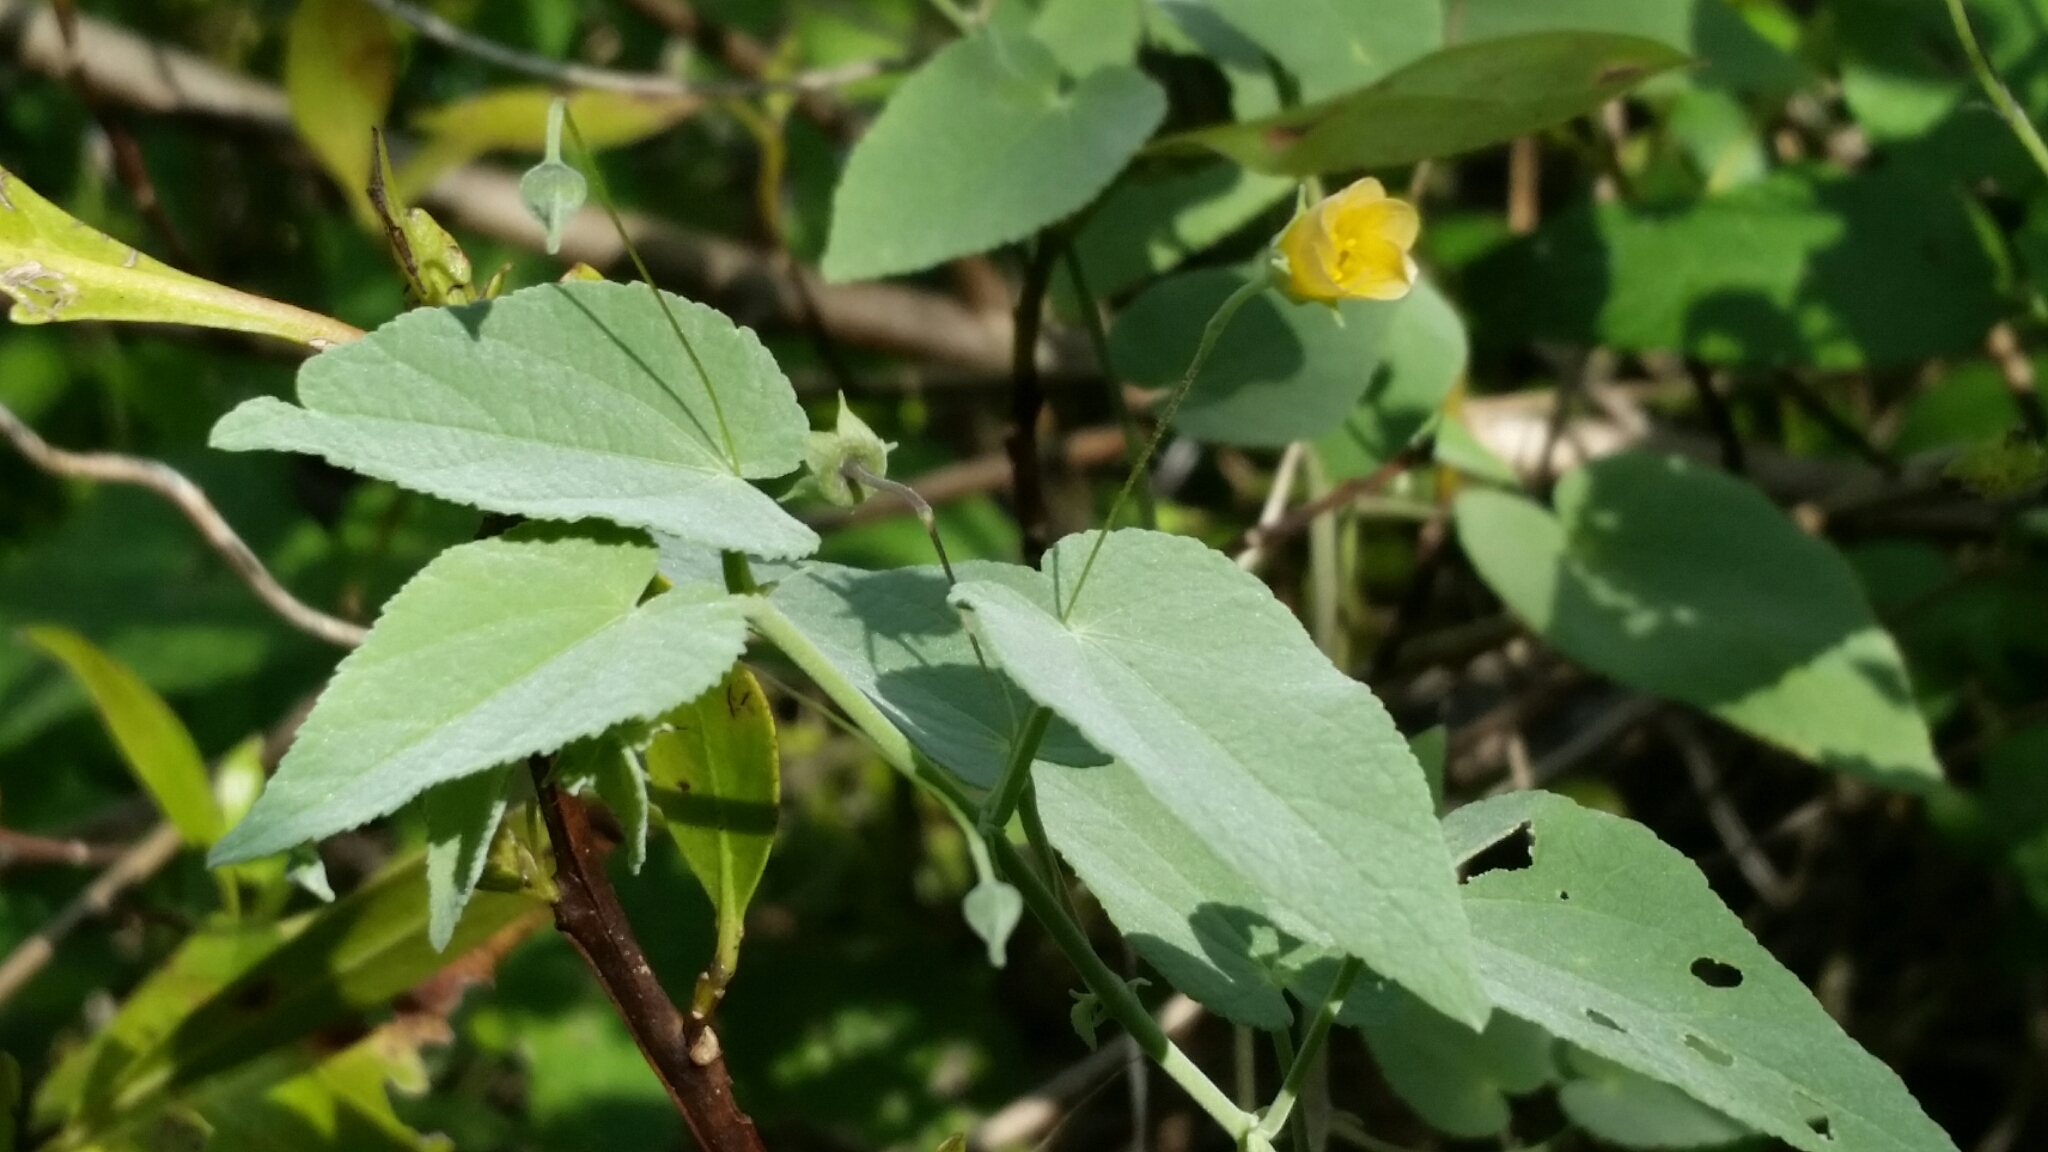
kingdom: Plantae
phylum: Tracheophyta
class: Magnoliopsida
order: Malvales
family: Malvaceae
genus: Herissantia
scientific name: Herissantia crispa
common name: Bladdermallow
